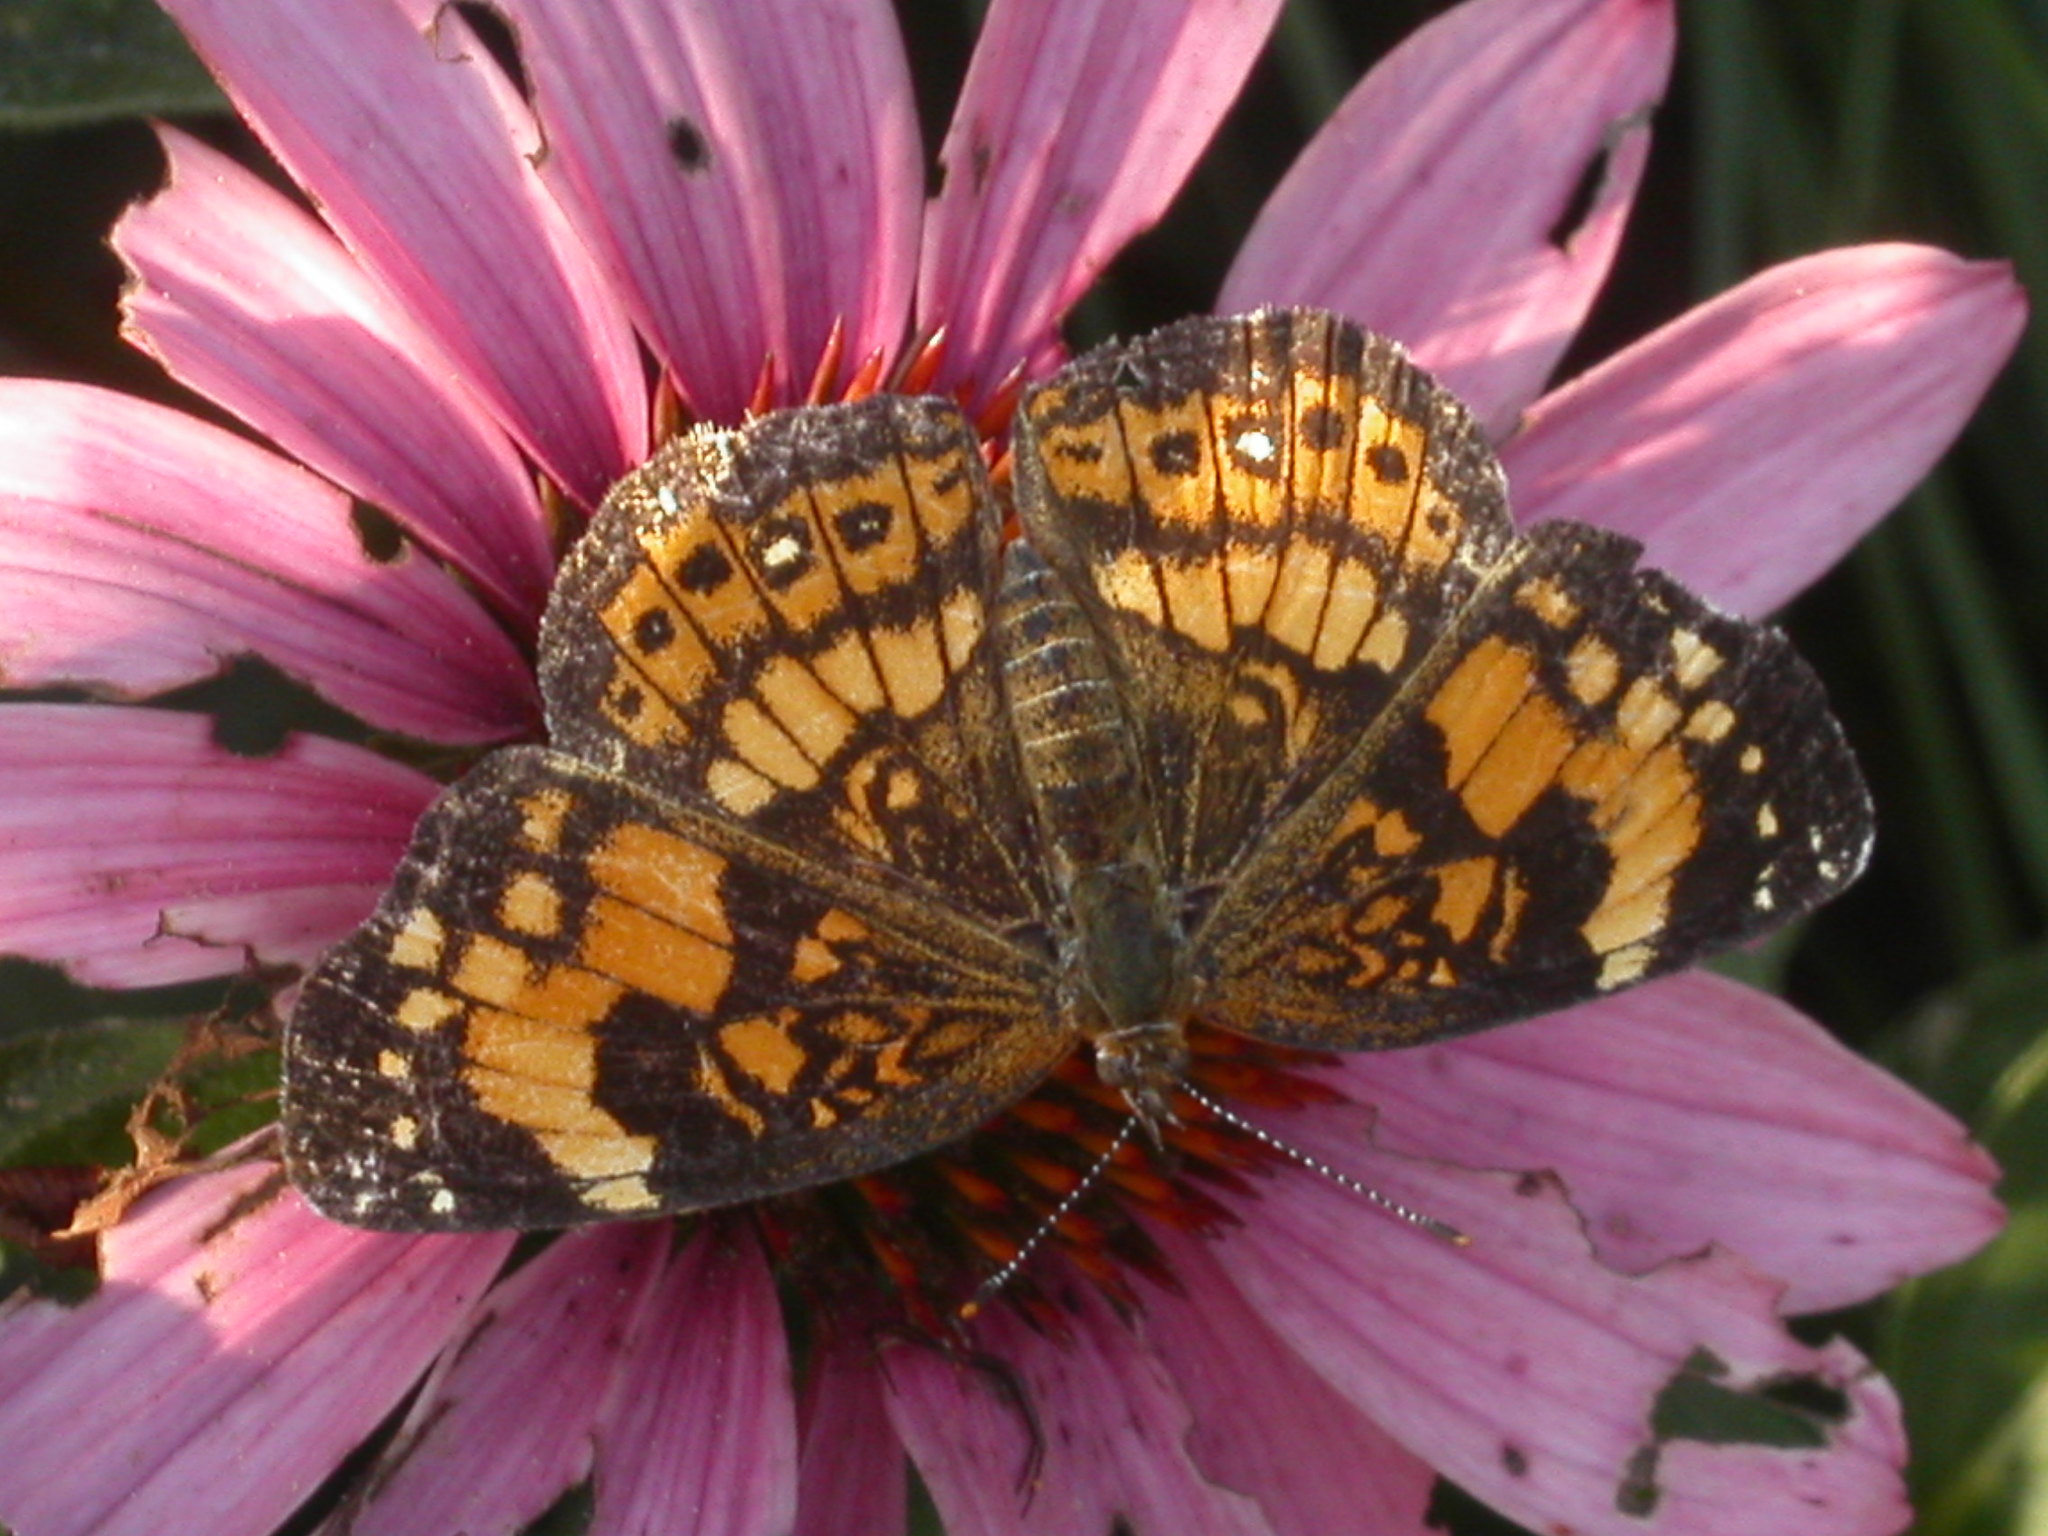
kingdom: Animalia
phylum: Arthropoda
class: Insecta
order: Lepidoptera
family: Nymphalidae
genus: Chlosyne
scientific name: Chlosyne nycteis
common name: Silvery checkerspot
